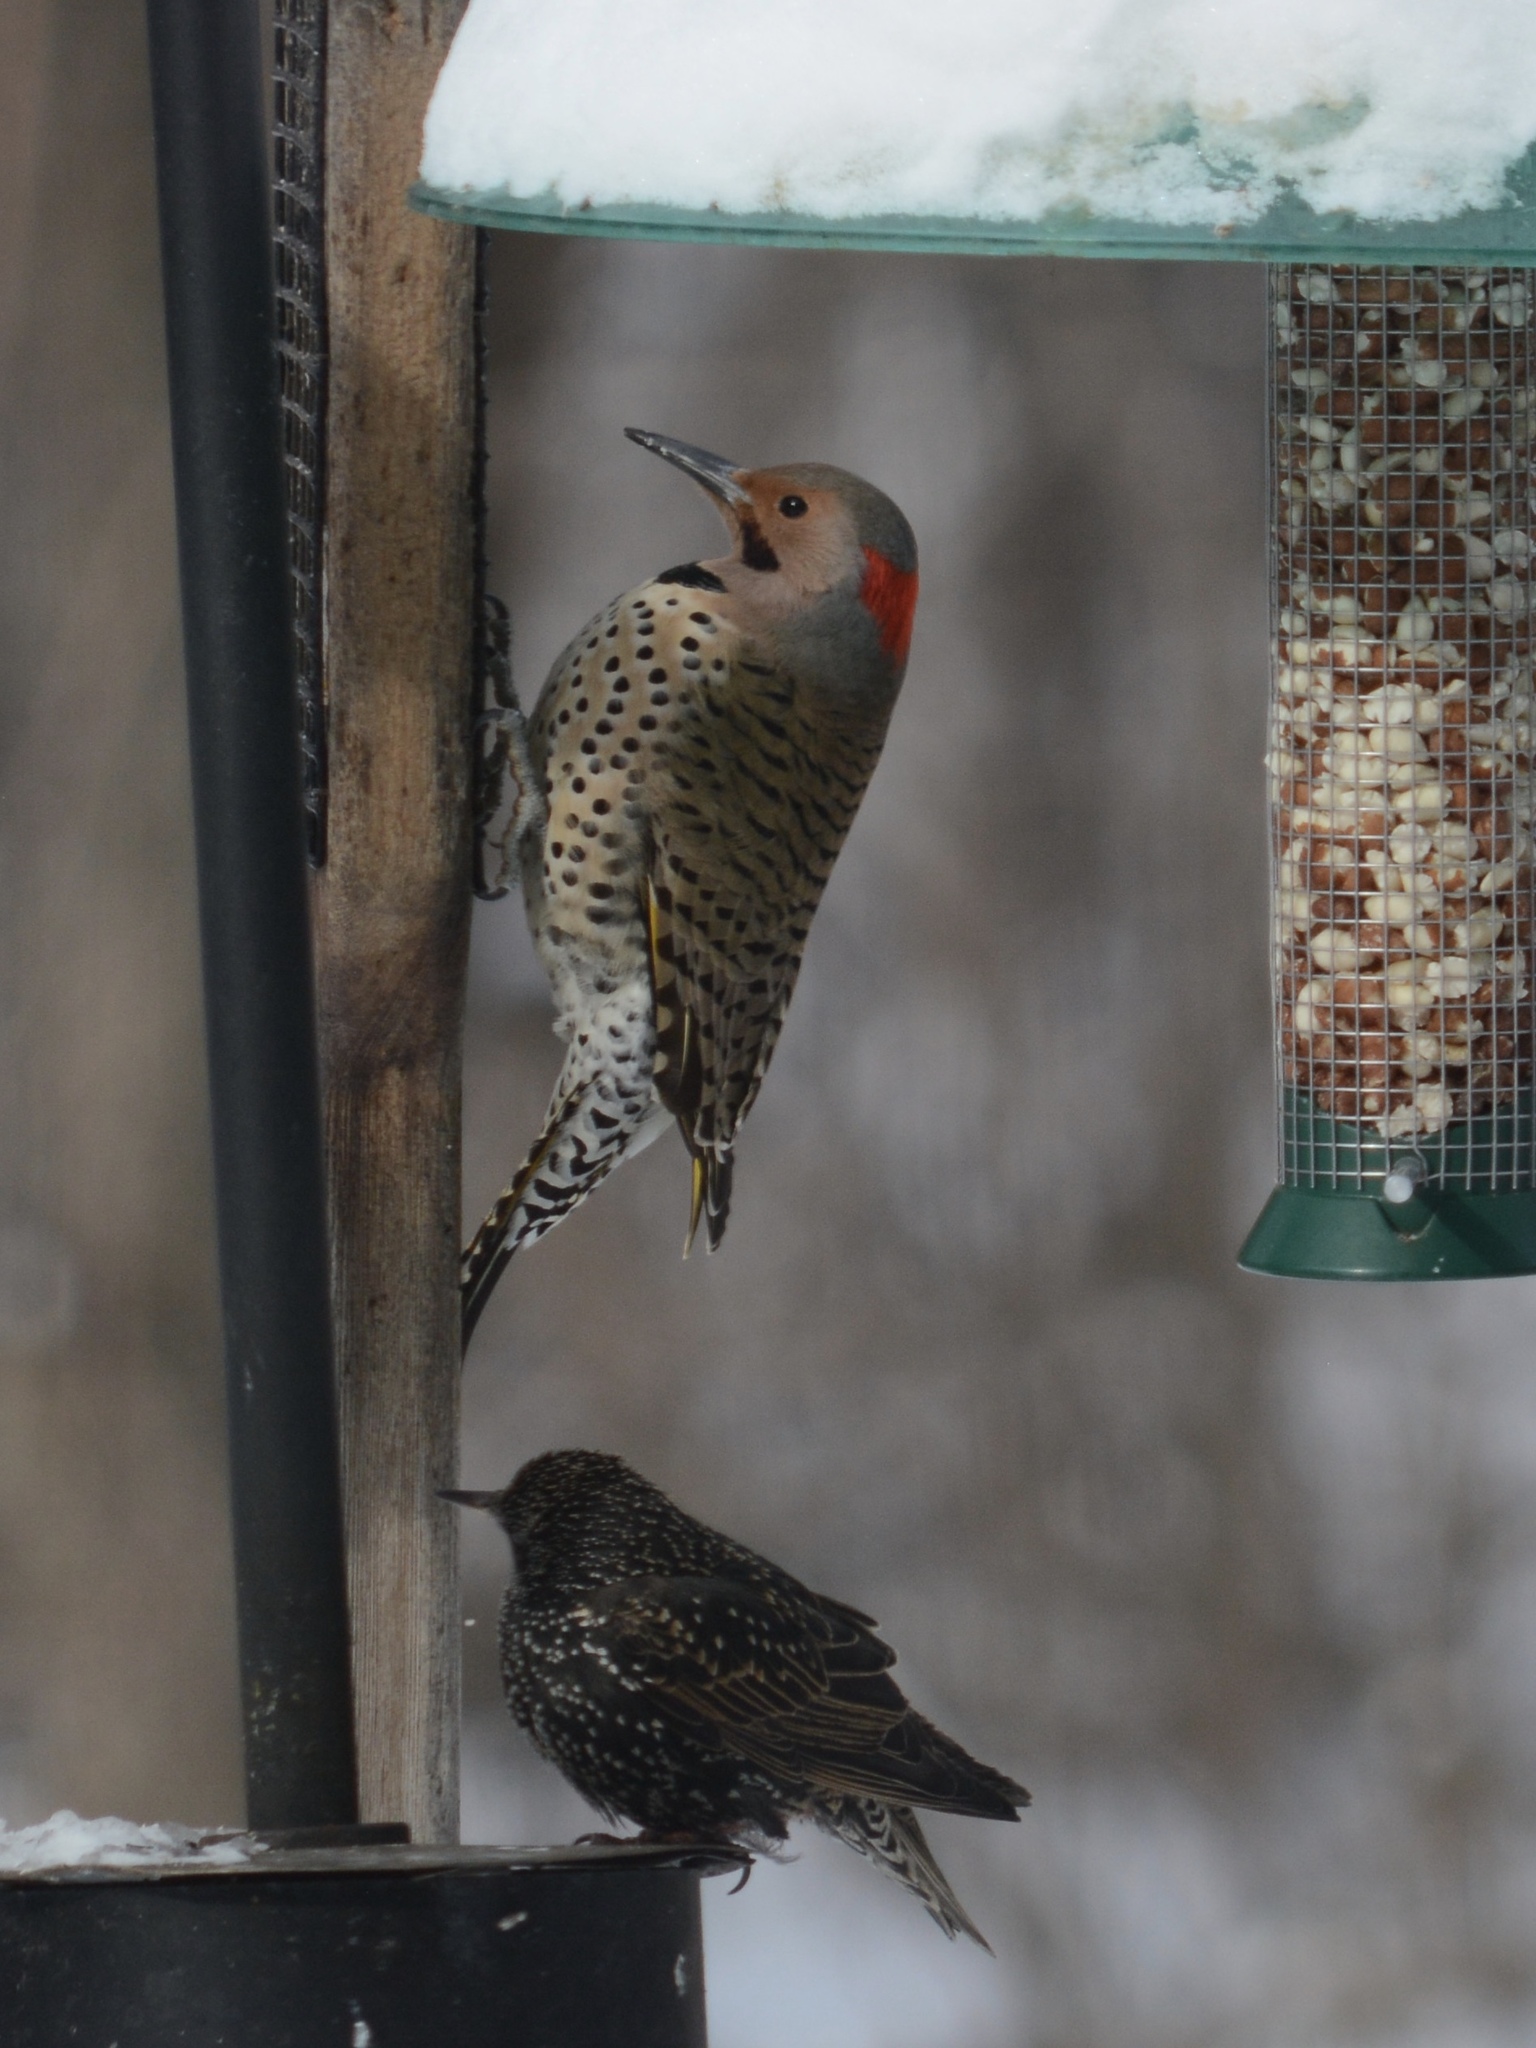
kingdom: Animalia
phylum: Chordata
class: Aves
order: Piciformes
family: Picidae
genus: Melanerpes
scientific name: Melanerpes carolinus
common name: Red-bellied woodpecker
